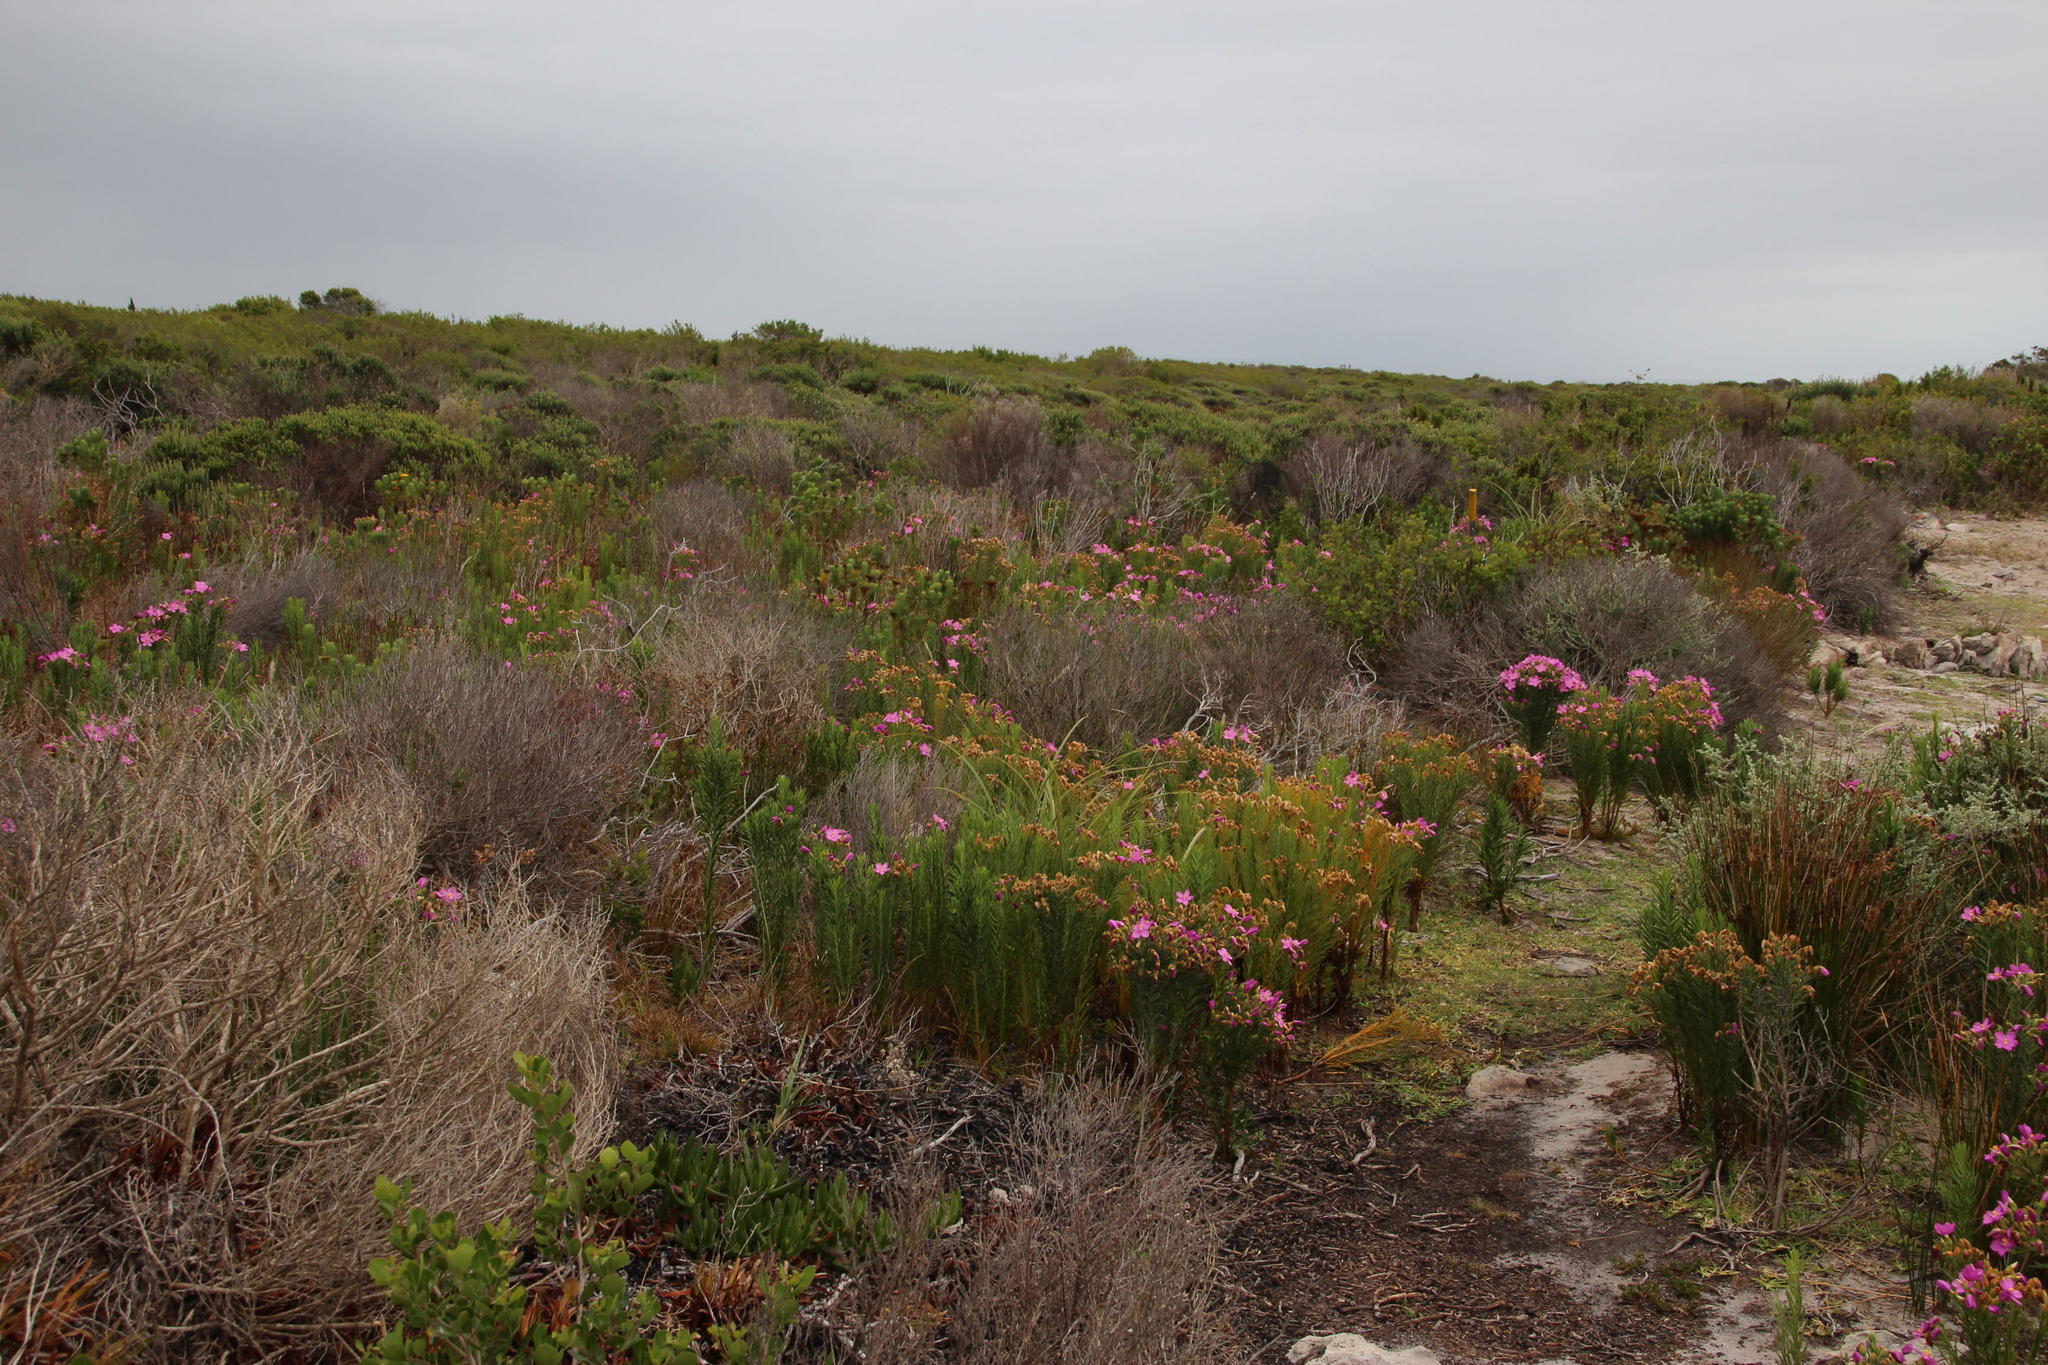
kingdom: Plantae
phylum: Tracheophyta
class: Magnoliopsida
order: Gentianales
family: Gentianaceae
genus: Orphium
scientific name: Orphium frutescens
